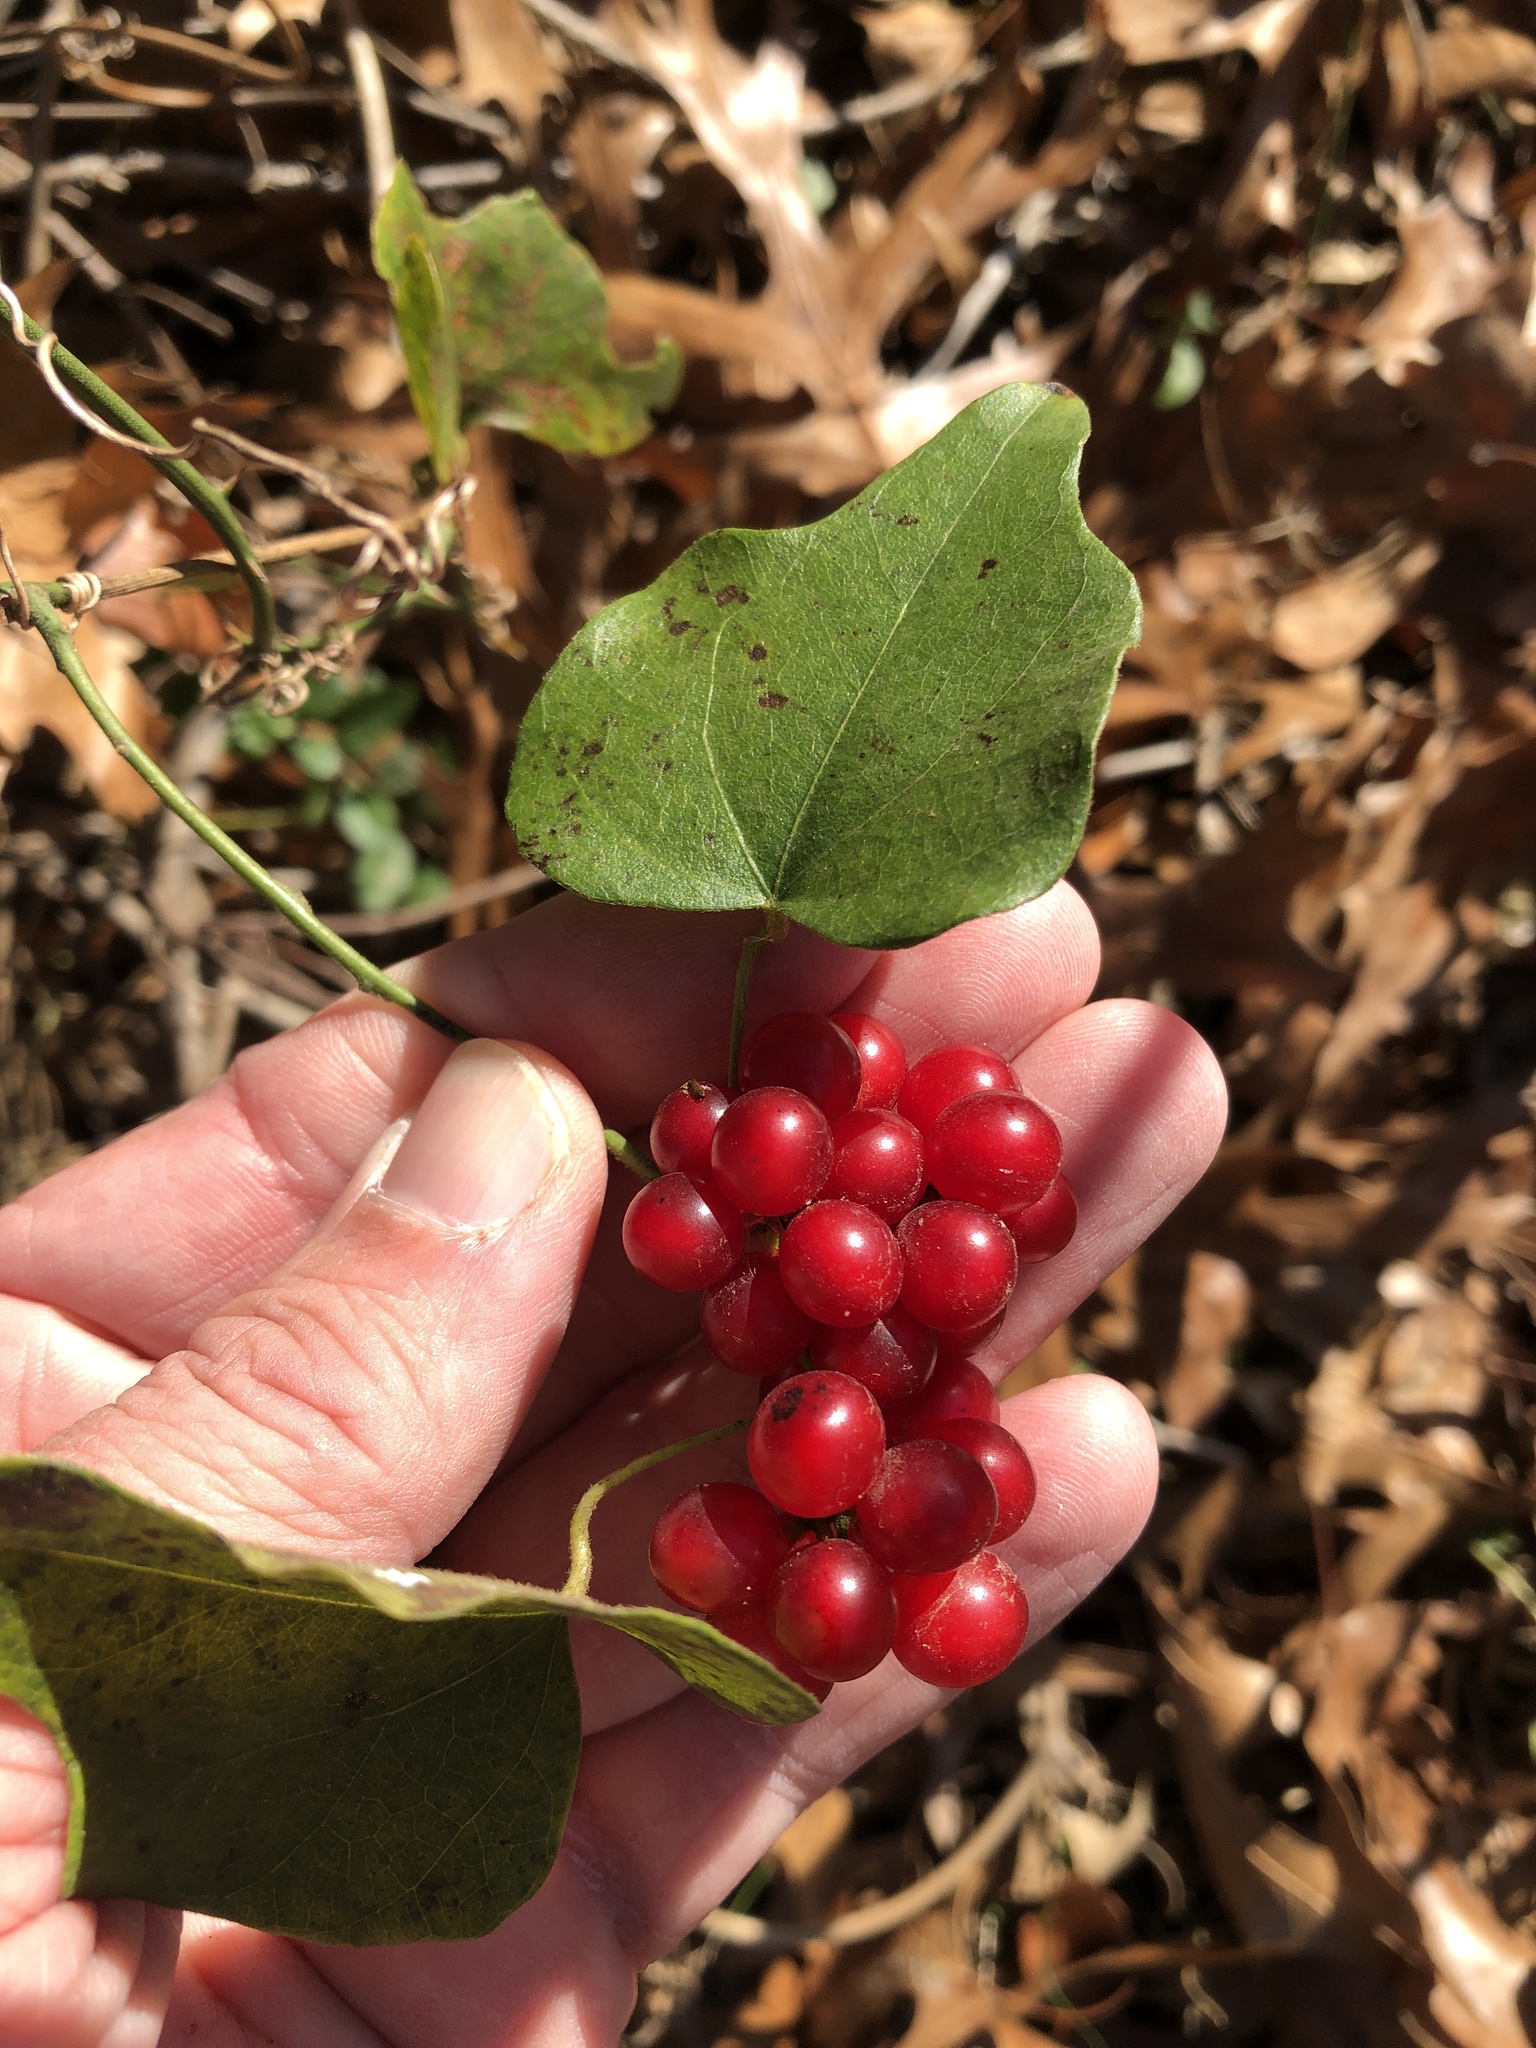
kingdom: Plantae
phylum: Tracheophyta
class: Magnoliopsida
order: Ranunculales
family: Menispermaceae
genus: Cocculus
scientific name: Cocculus carolinus
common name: Carolina moonseed
